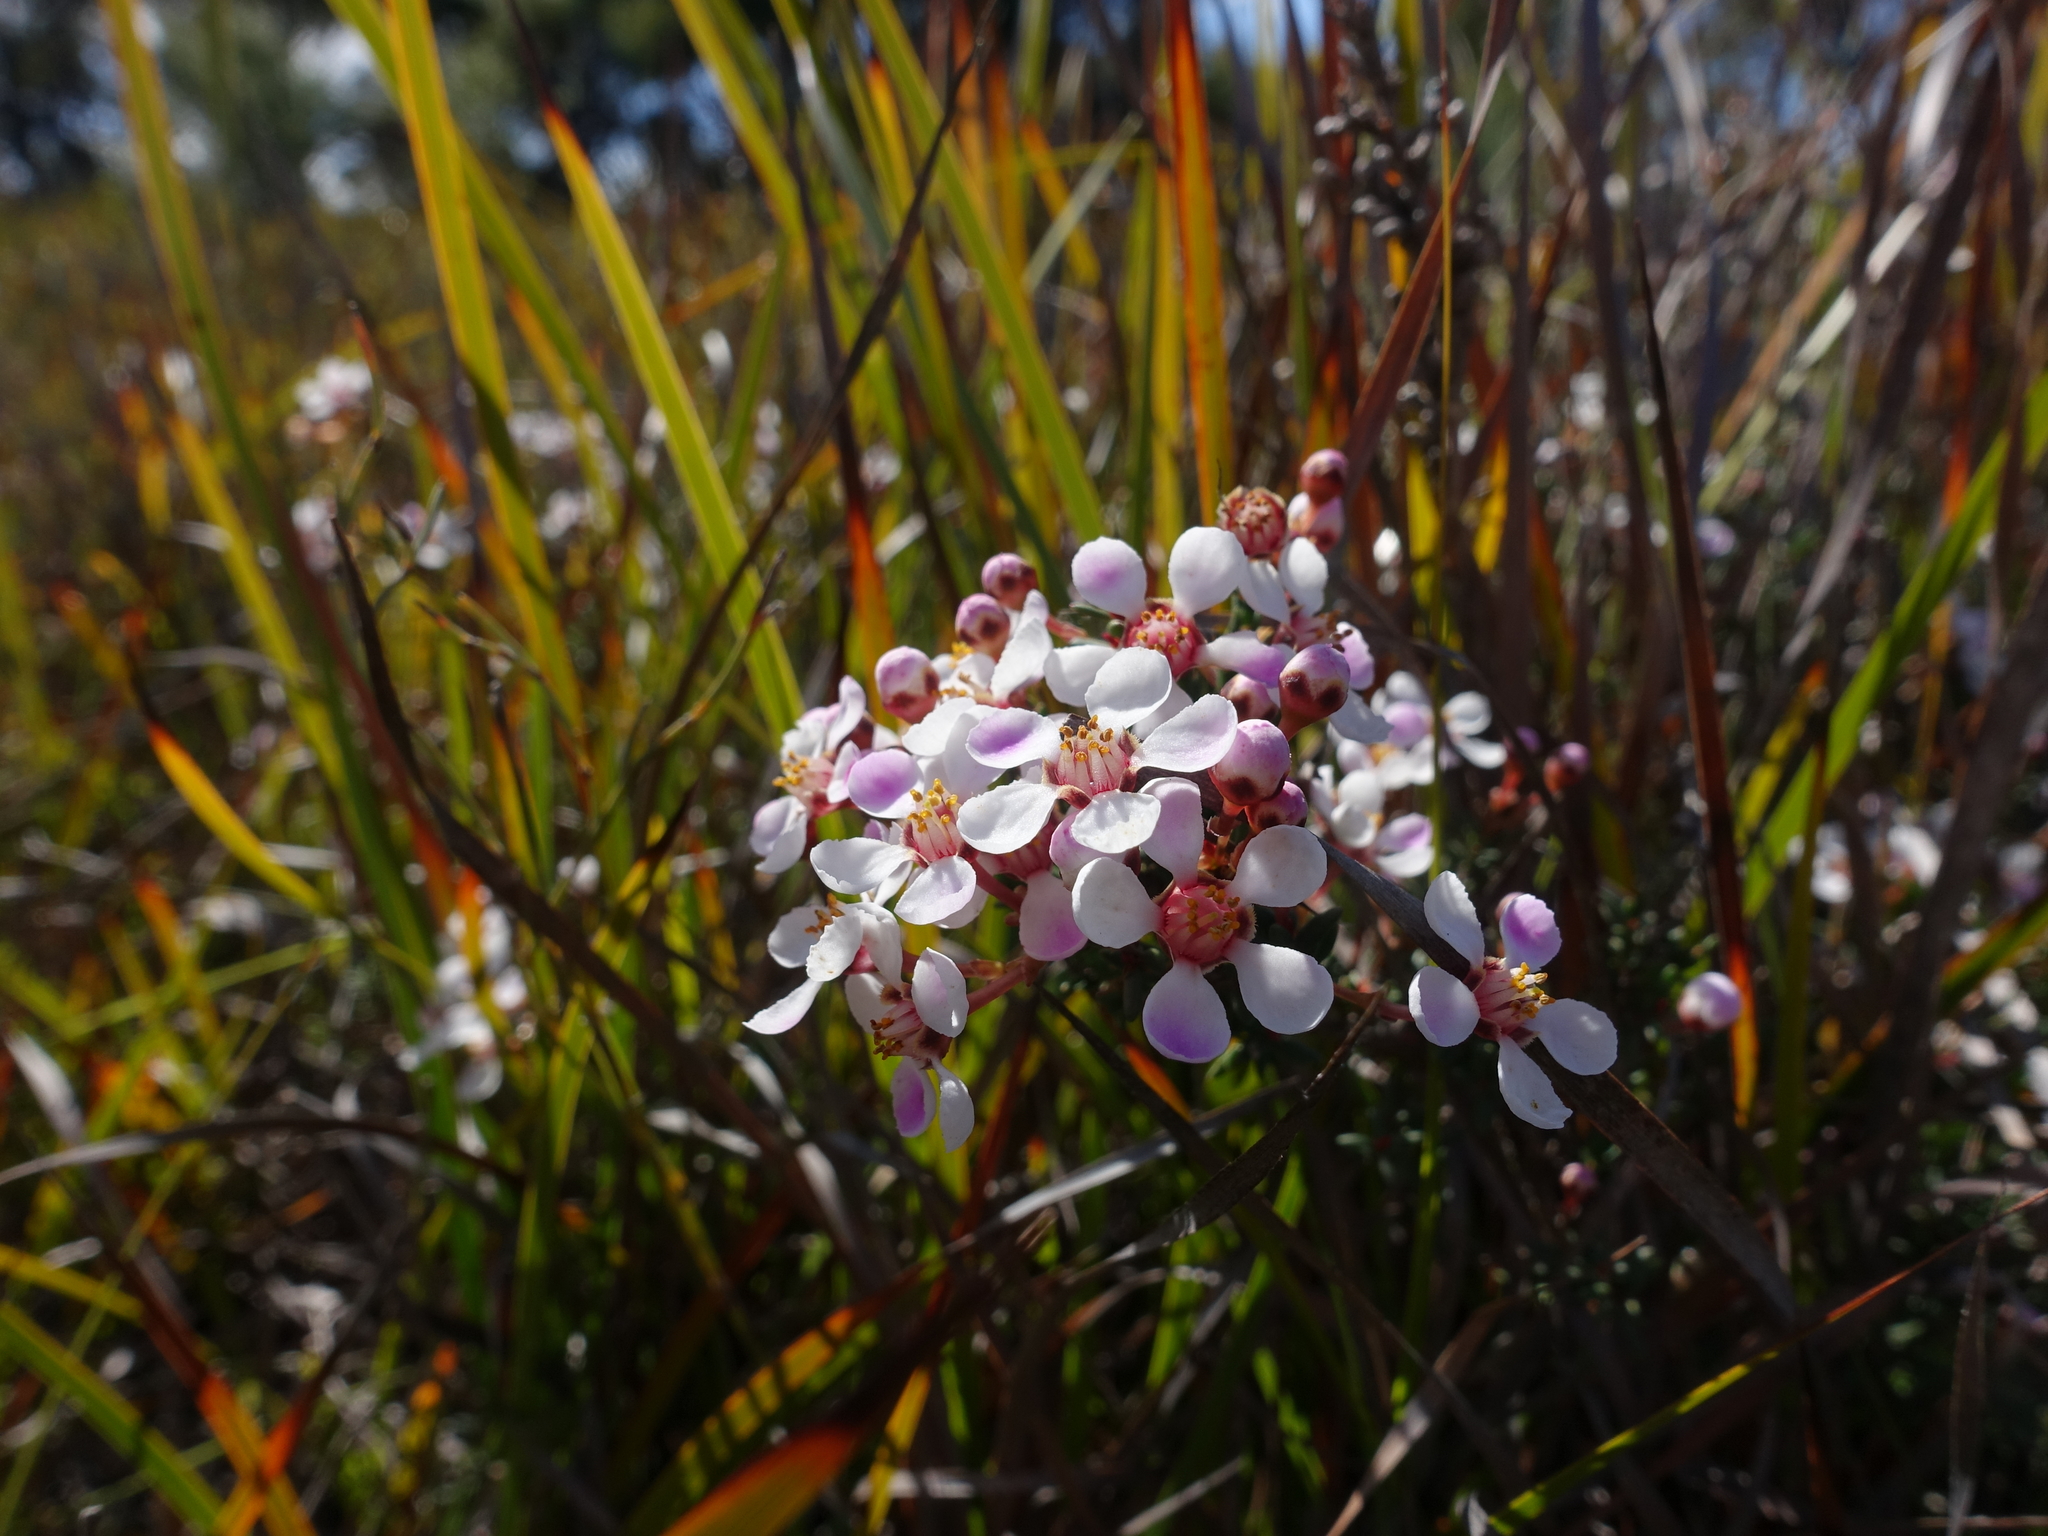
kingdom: Plantae
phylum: Tracheophyta
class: Magnoliopsida
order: Myrtales
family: Myrtaceae
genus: Euryomyrtus
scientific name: Euryomyrtus ramosissima
